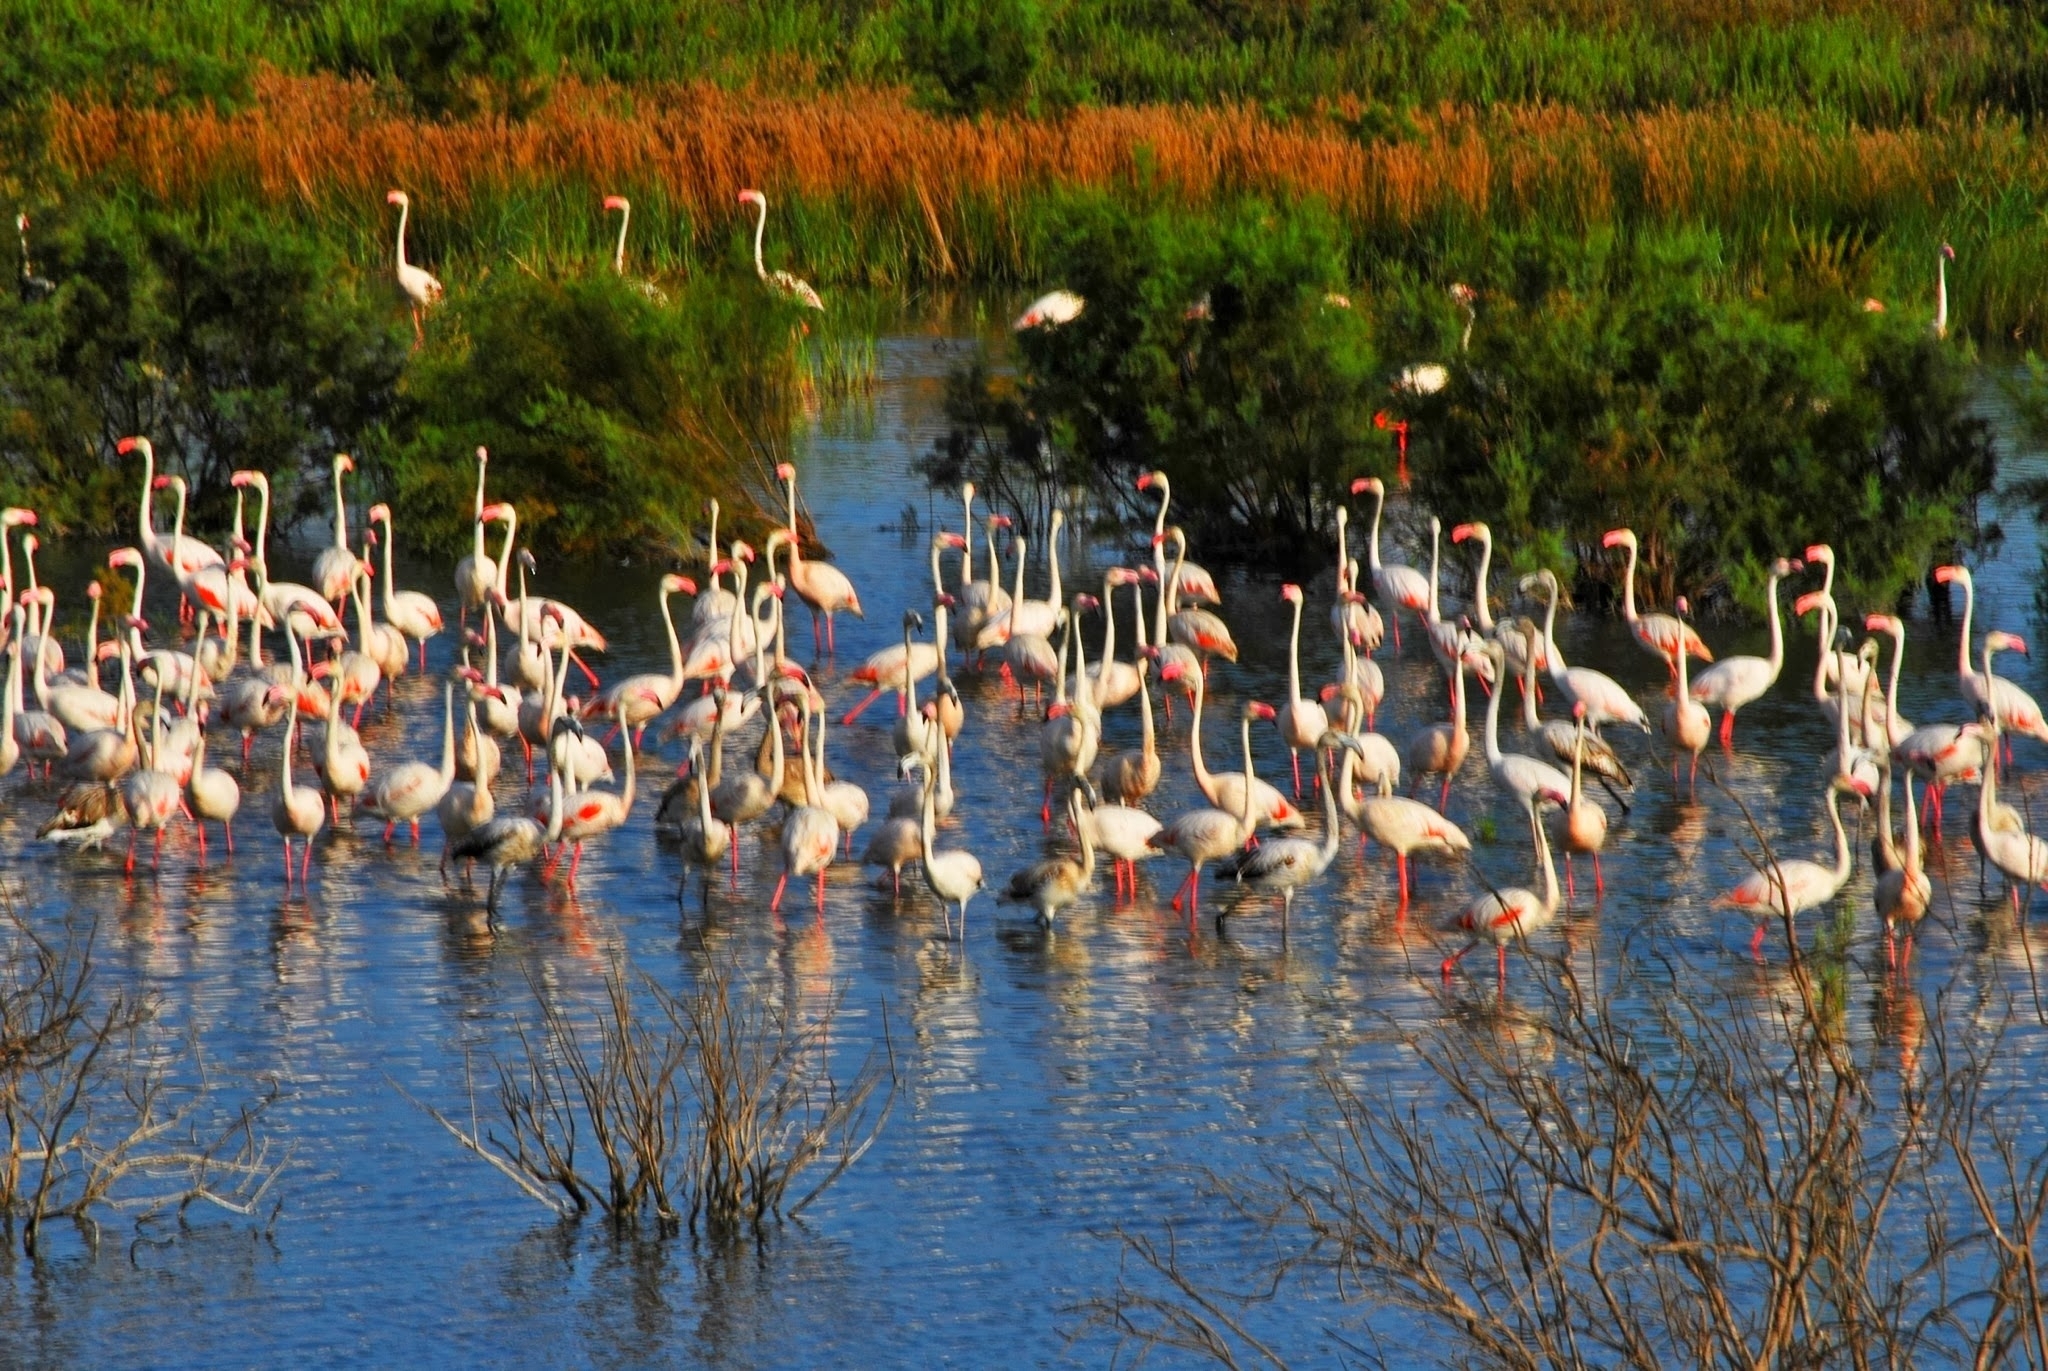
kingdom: Animalia
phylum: Chordata
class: Aves
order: Phoenicopteriformes
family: Phoenicopteridae
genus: Phoenicopterus
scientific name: Phoenicopterus roseus
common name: Greater flamingo
